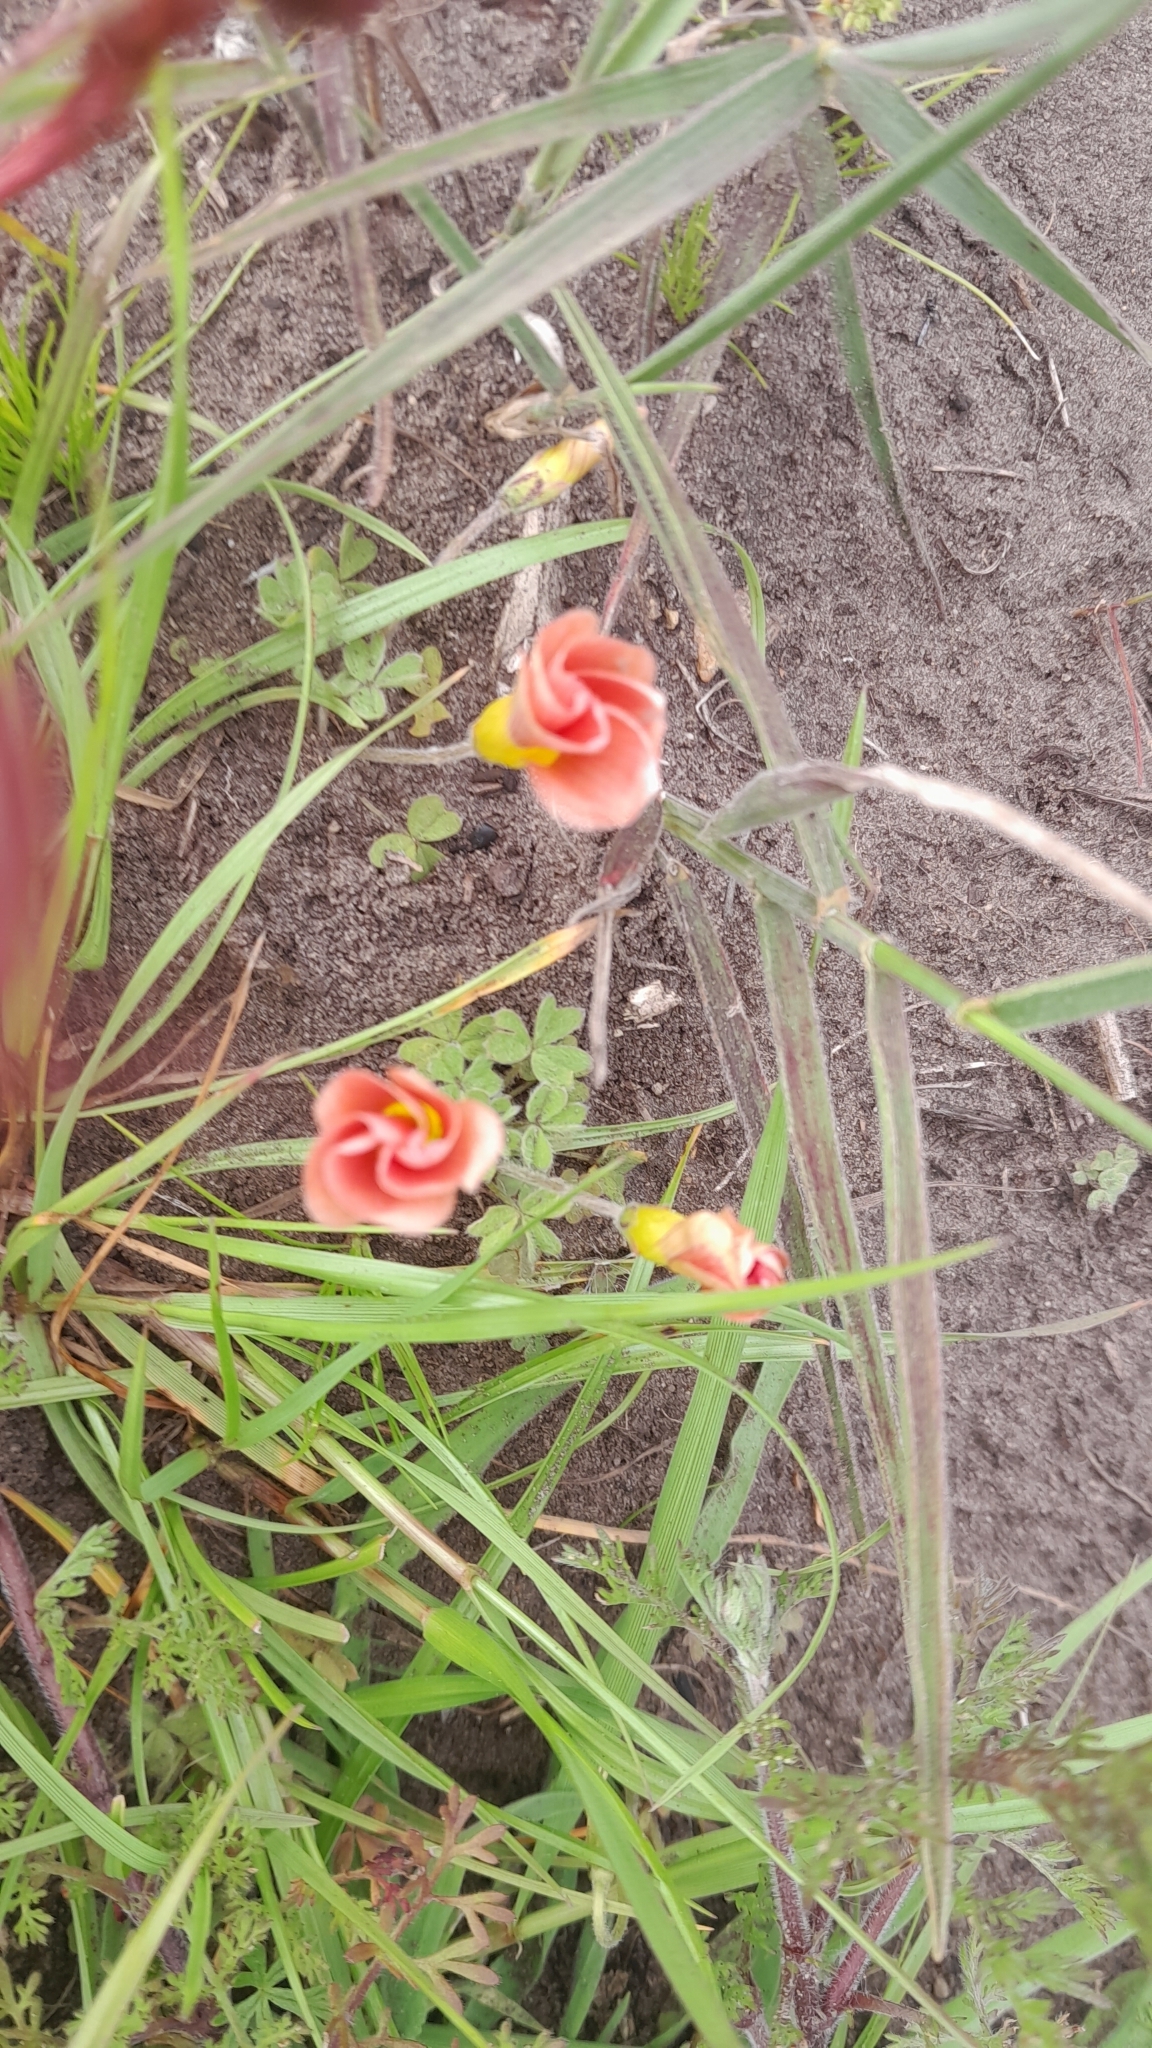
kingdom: Plantae
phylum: Tracheophyta
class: Magnoliopsida
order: Oxalidales
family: Oxalidaceae
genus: Oxalis
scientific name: Oxalis obtusa
